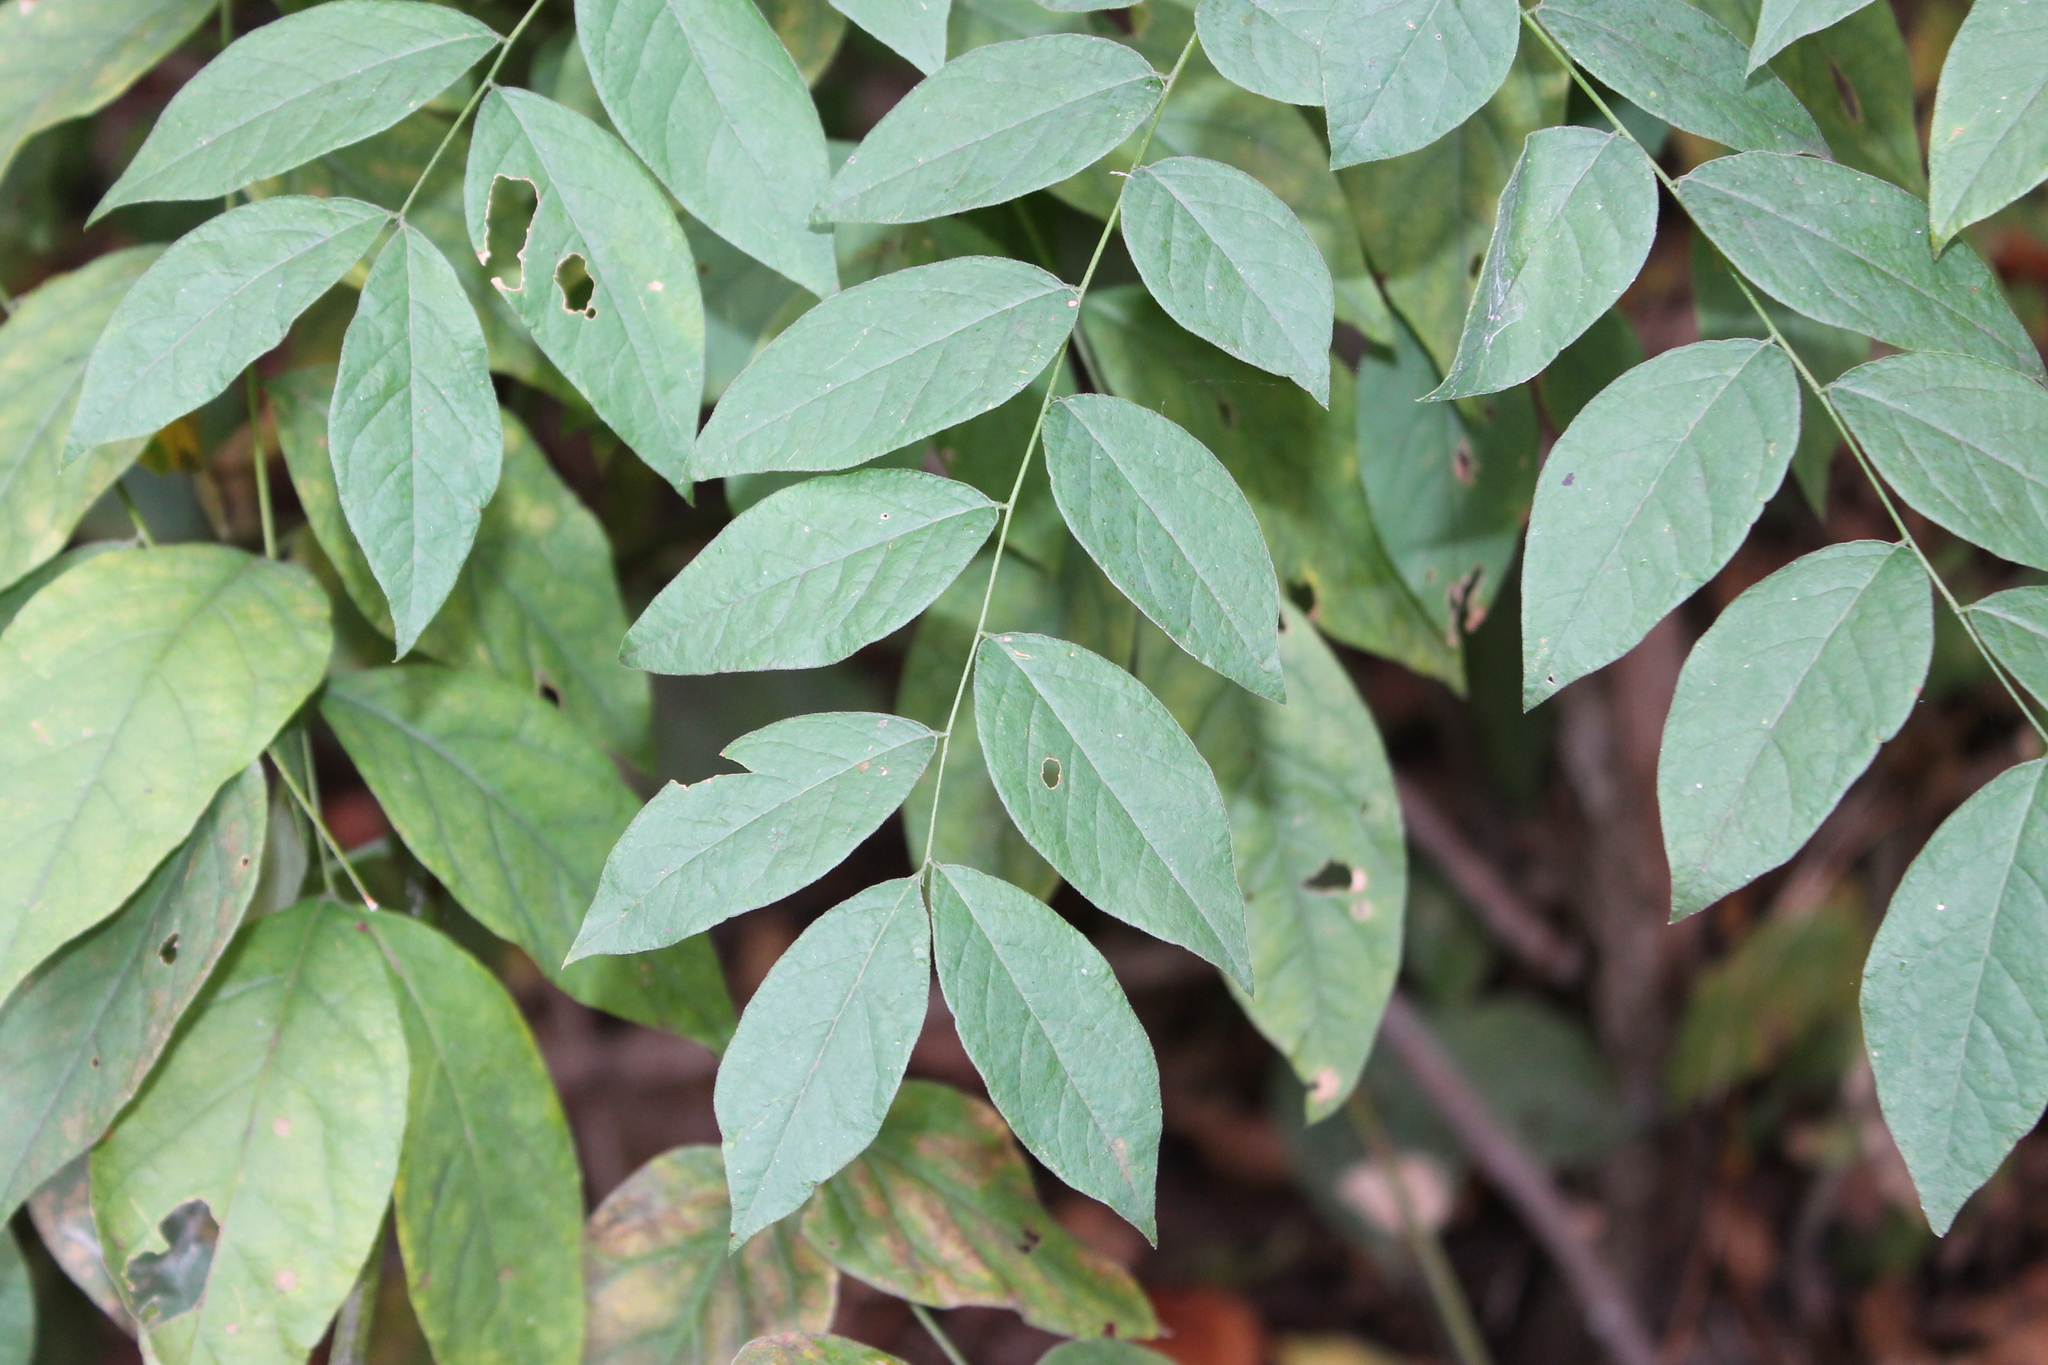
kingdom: Plantae
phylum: Tracheophyta
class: Magnoliopsida
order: Fabales
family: Fabaceae
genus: Gymnocladus
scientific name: Gymnocladus dioicus
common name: Kentucky coffee-tree
